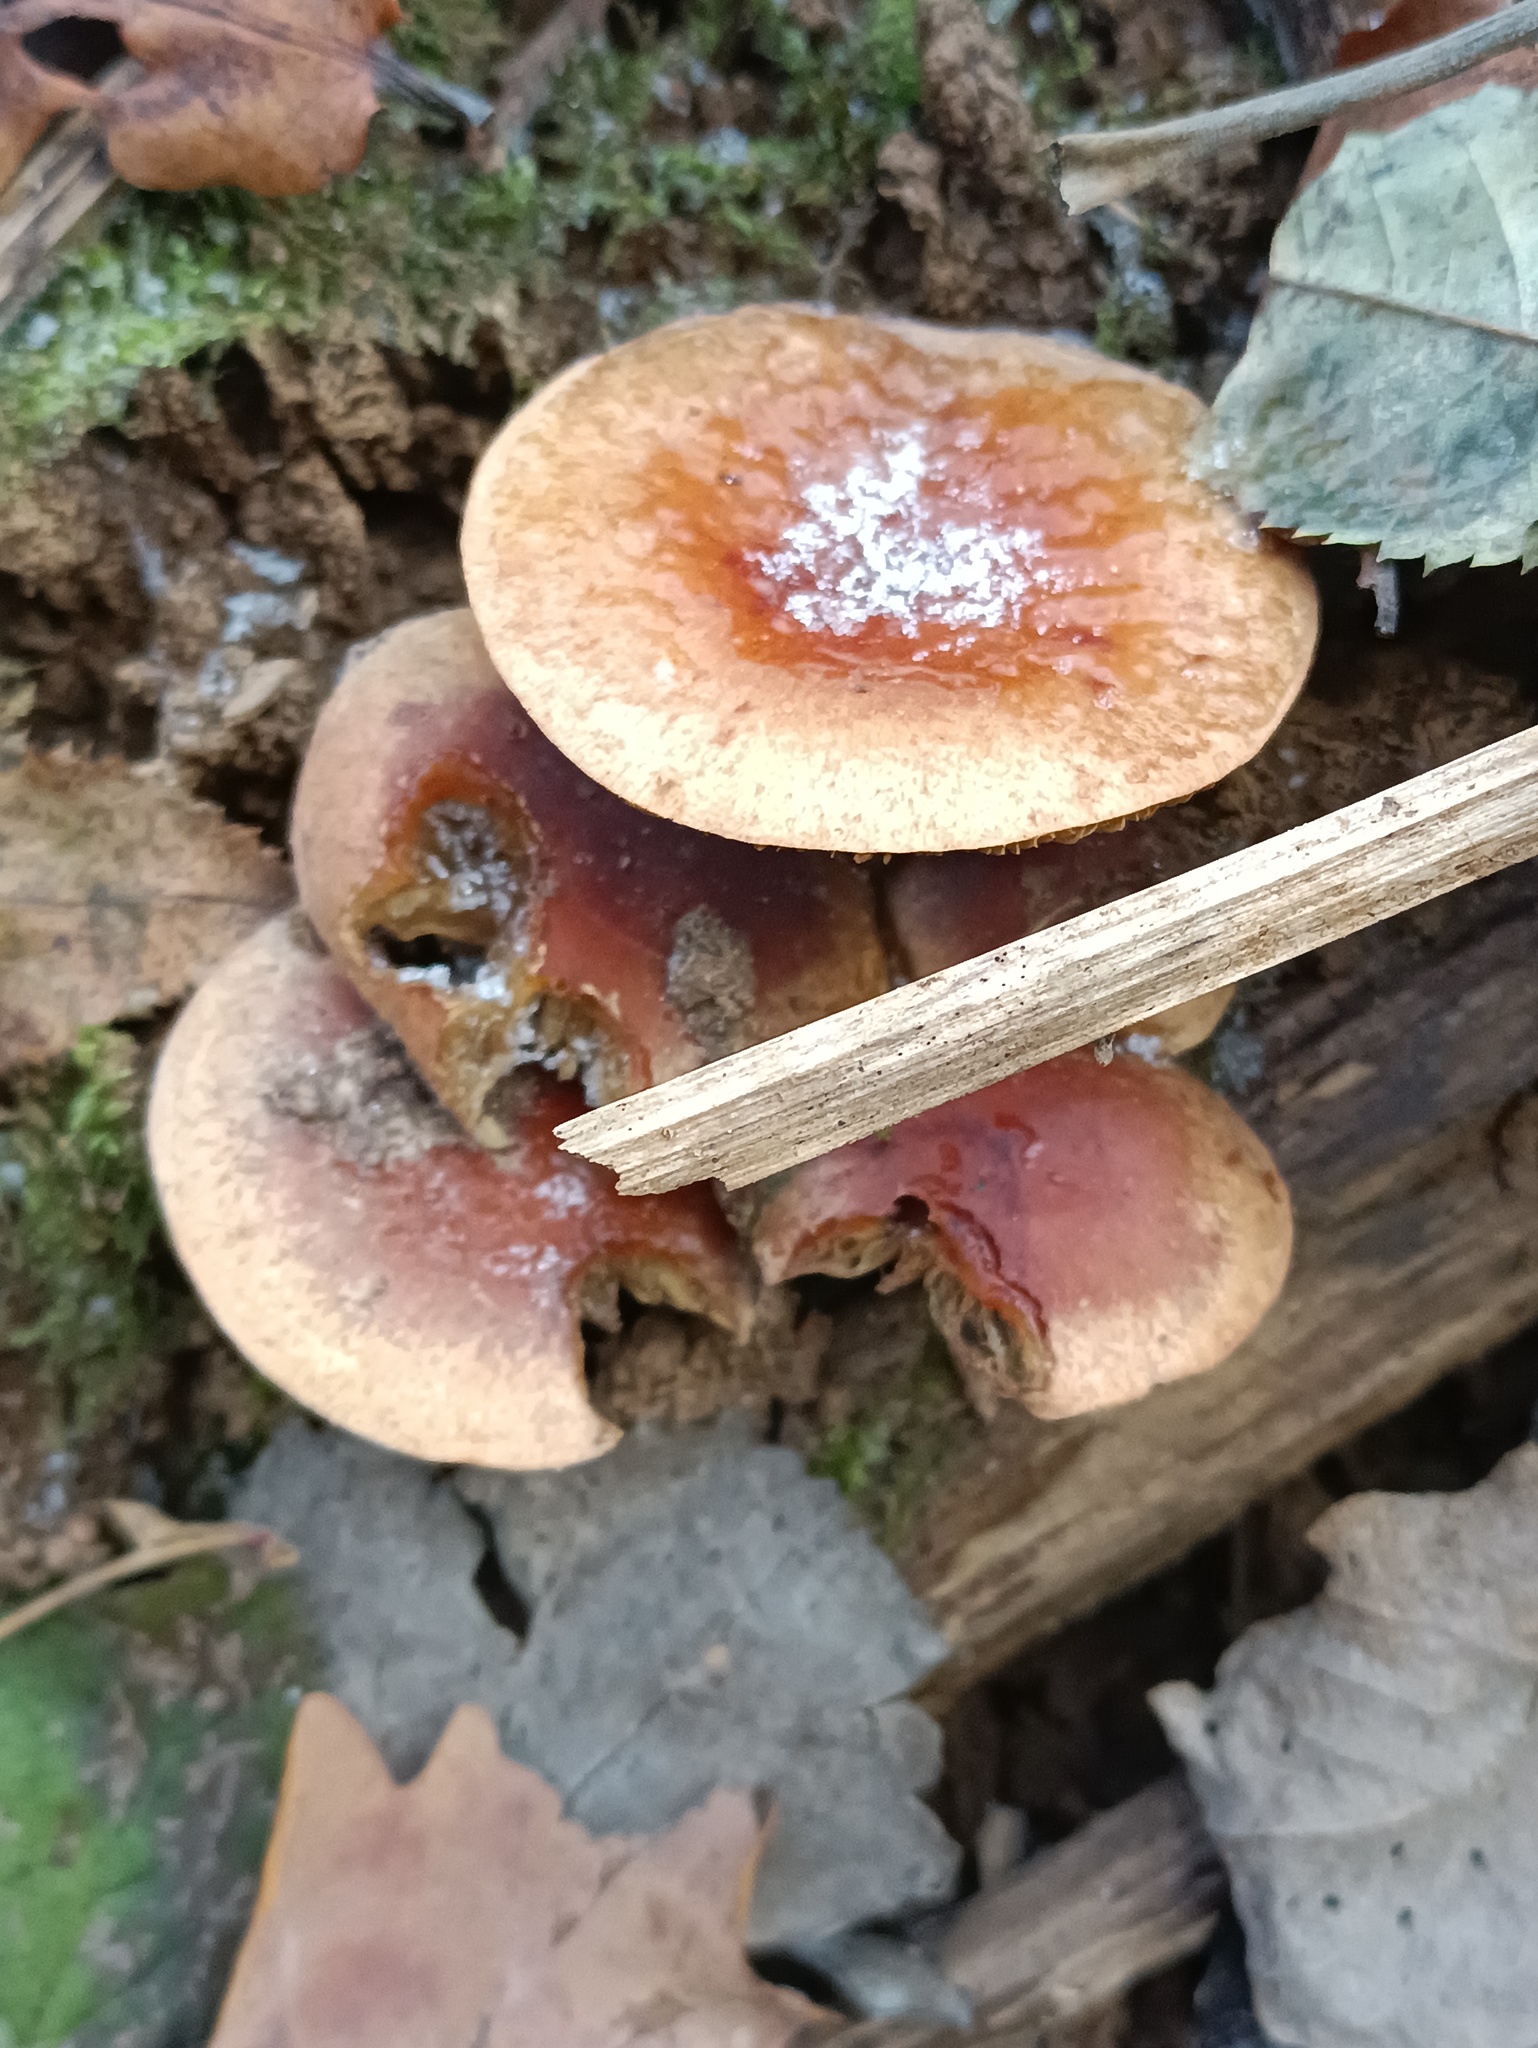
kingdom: Fungi
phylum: Basidiomycota
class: Agaricomycetes
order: Agaricales
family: Strophariaceae
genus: Hypholoma
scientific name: Hypholoma lateritium
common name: Brick caps
